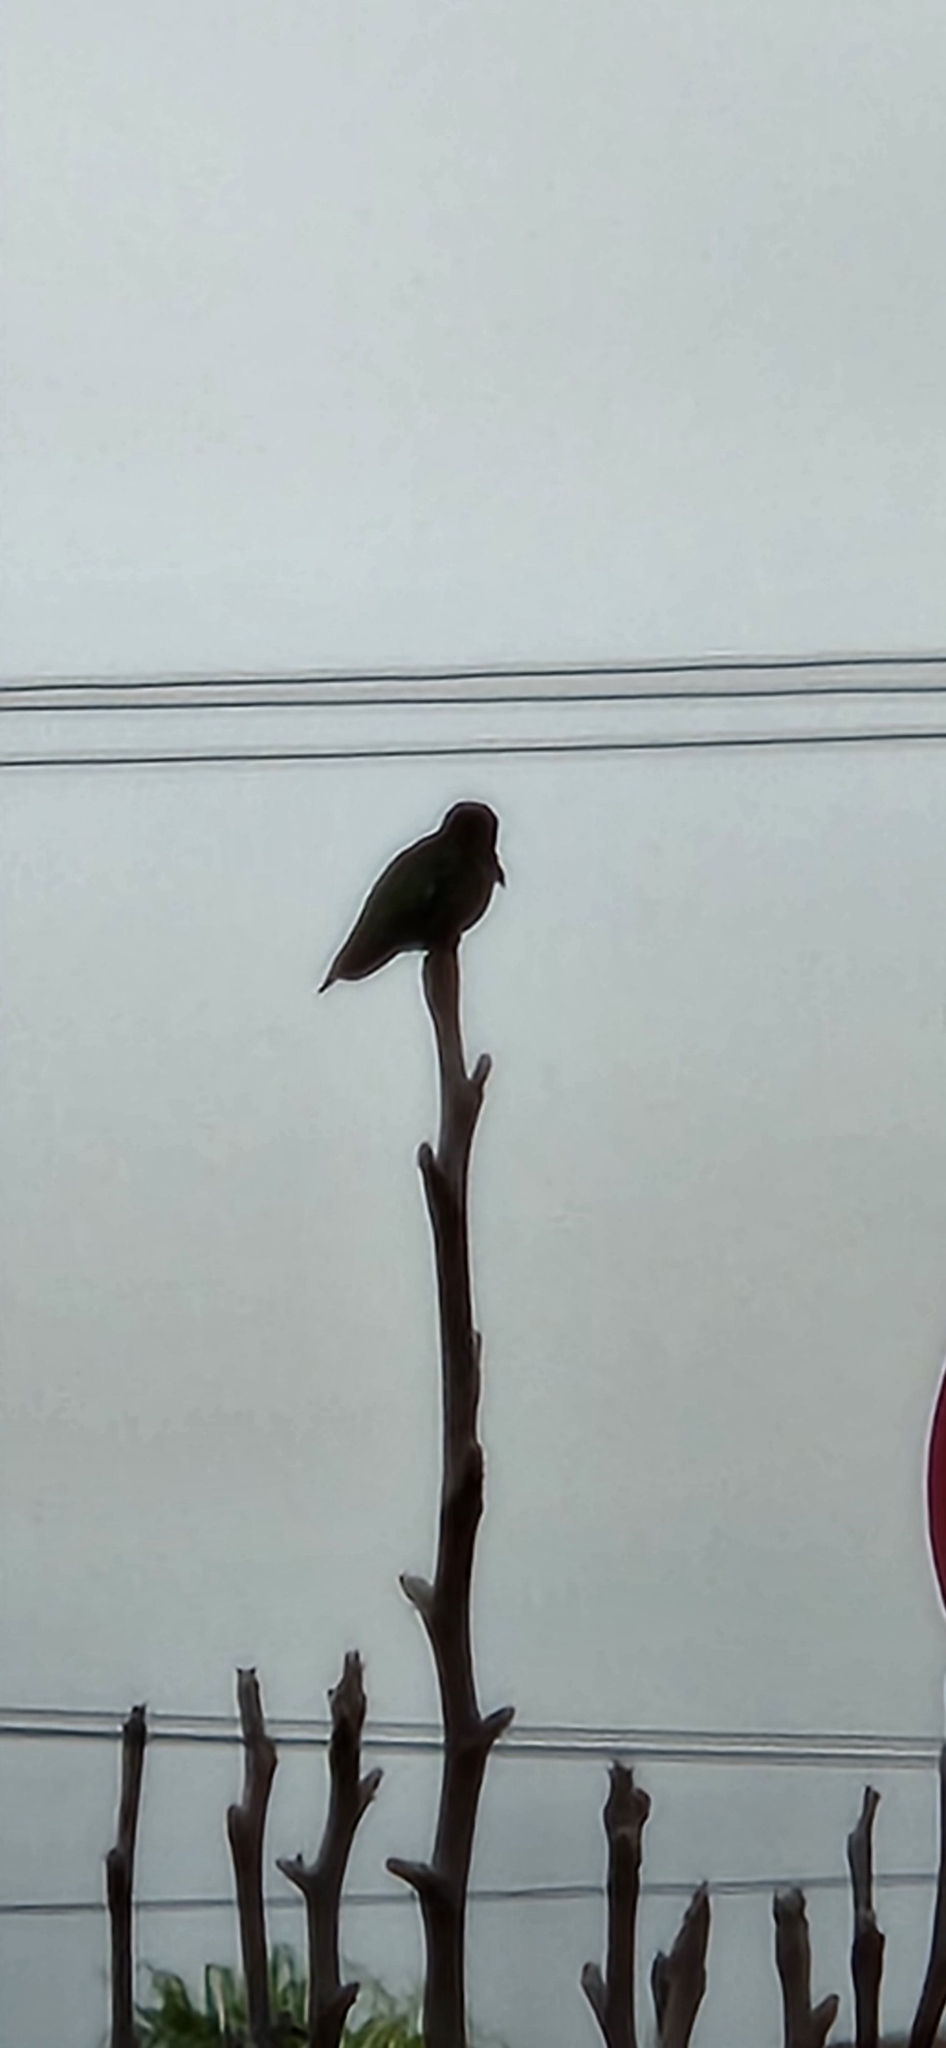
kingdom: Animalia
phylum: Chordata
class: Aves
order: Apodiformes
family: Trochilidae
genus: Calypte
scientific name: Calypte anna
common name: Anna's hummingbird
